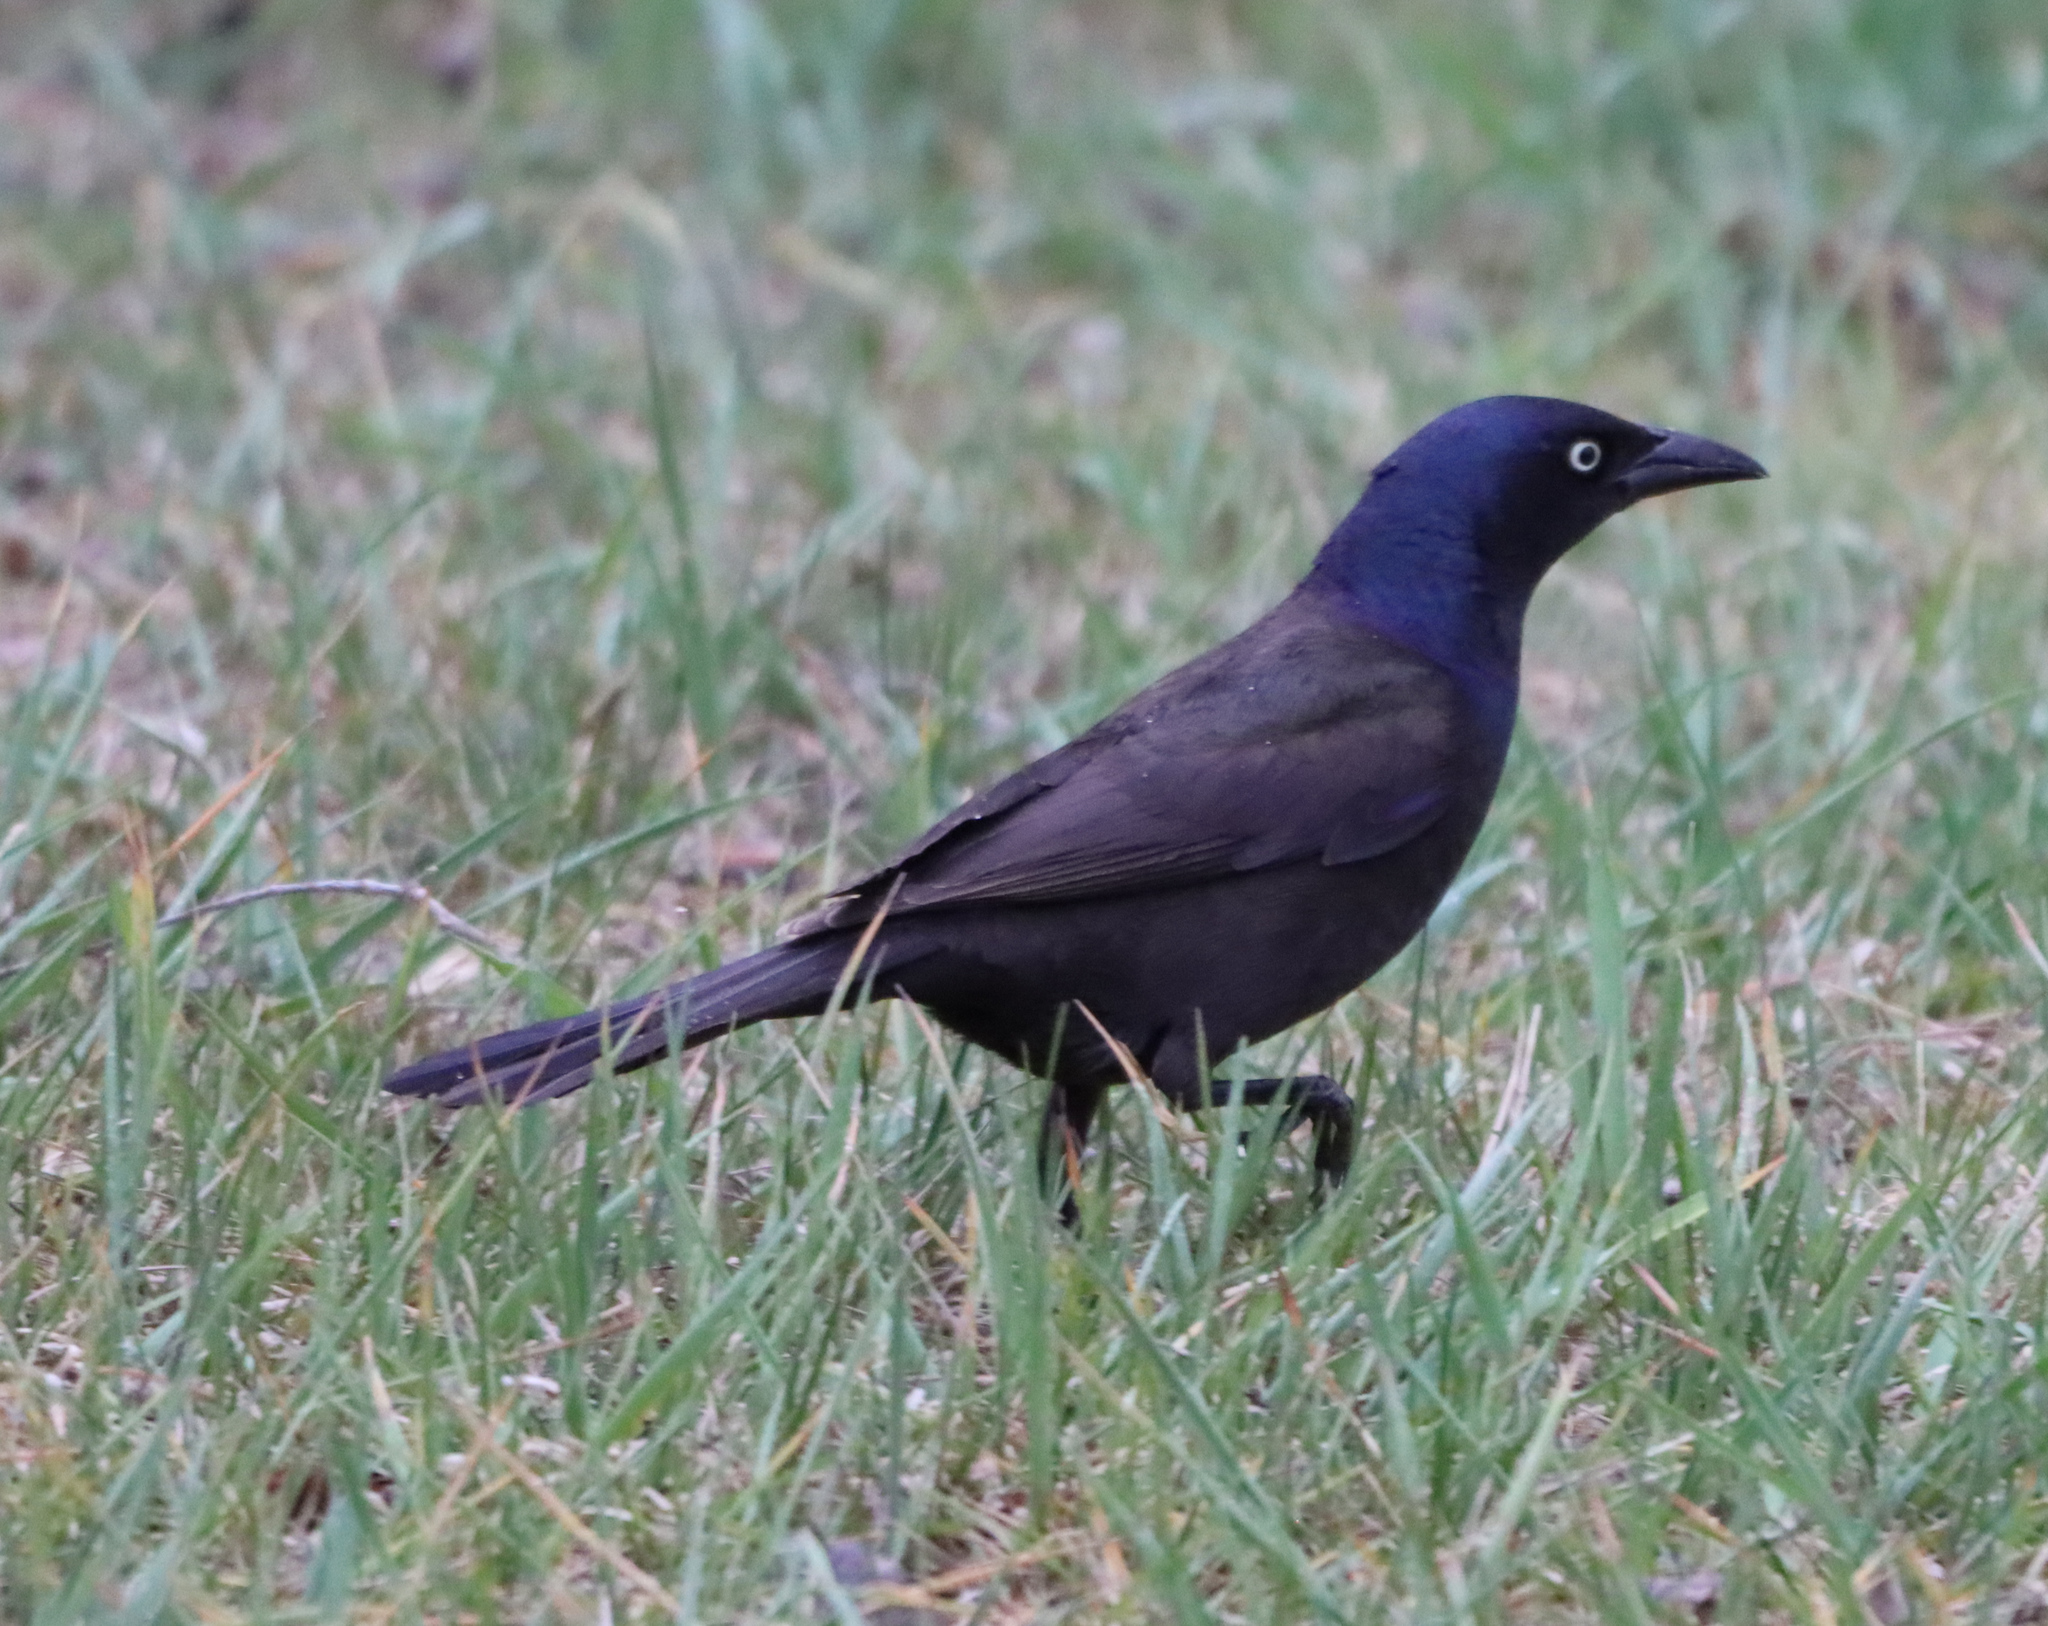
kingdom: Animalia
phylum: Chordata
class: Aves
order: Passeriformes
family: Icteridae
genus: Quiscalus
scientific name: Quiscalus quiscula
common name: Common grackle
